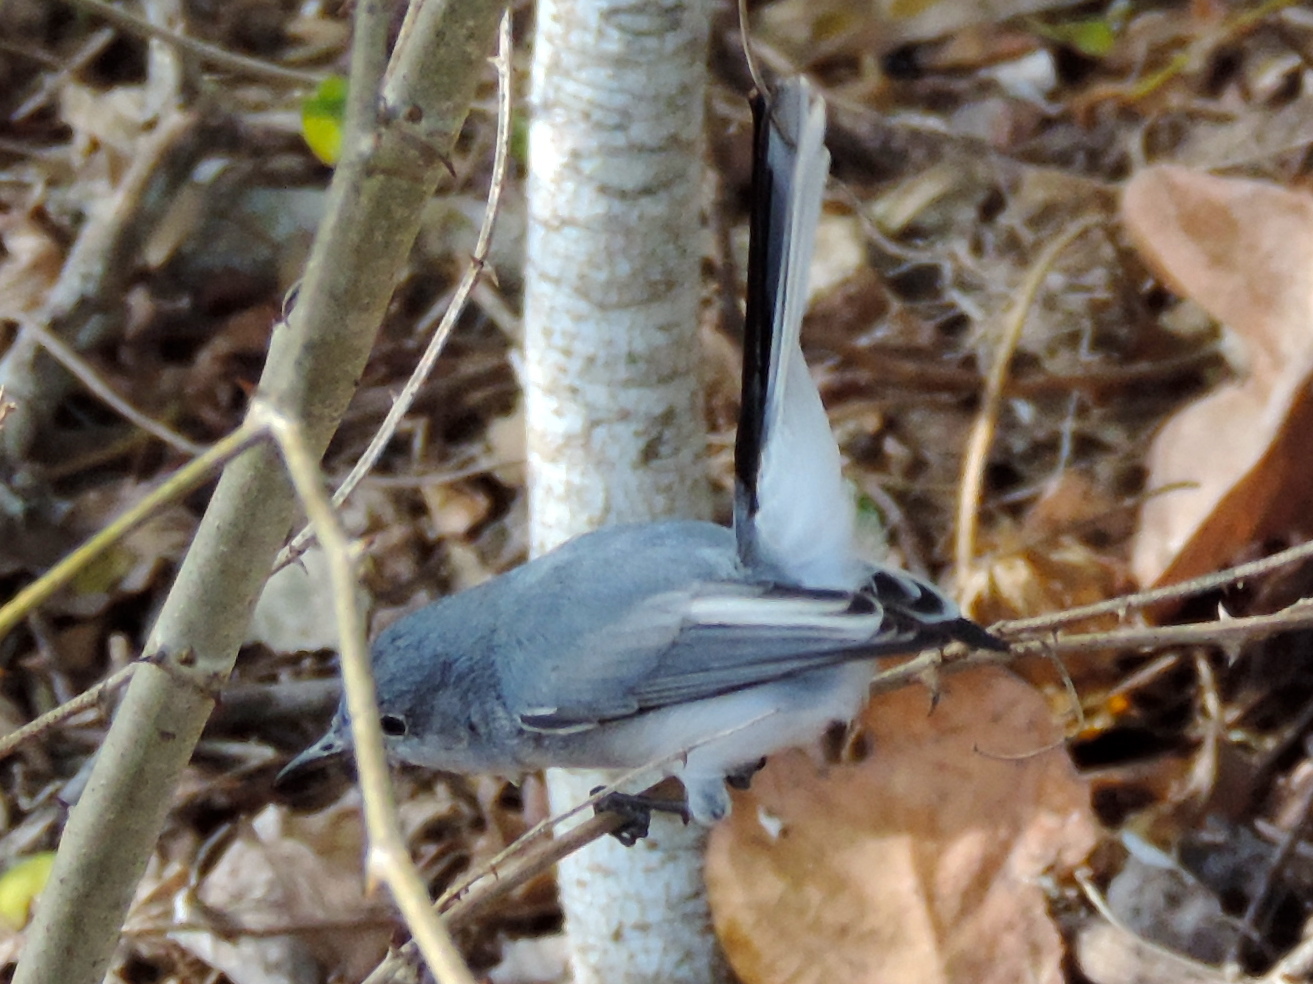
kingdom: Animalia
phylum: Chordata
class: Aves
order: Passeriformes
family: Polioptilidae
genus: Polioptila
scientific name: Polioptila caerulea
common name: Blue-gray gnatcatcher
